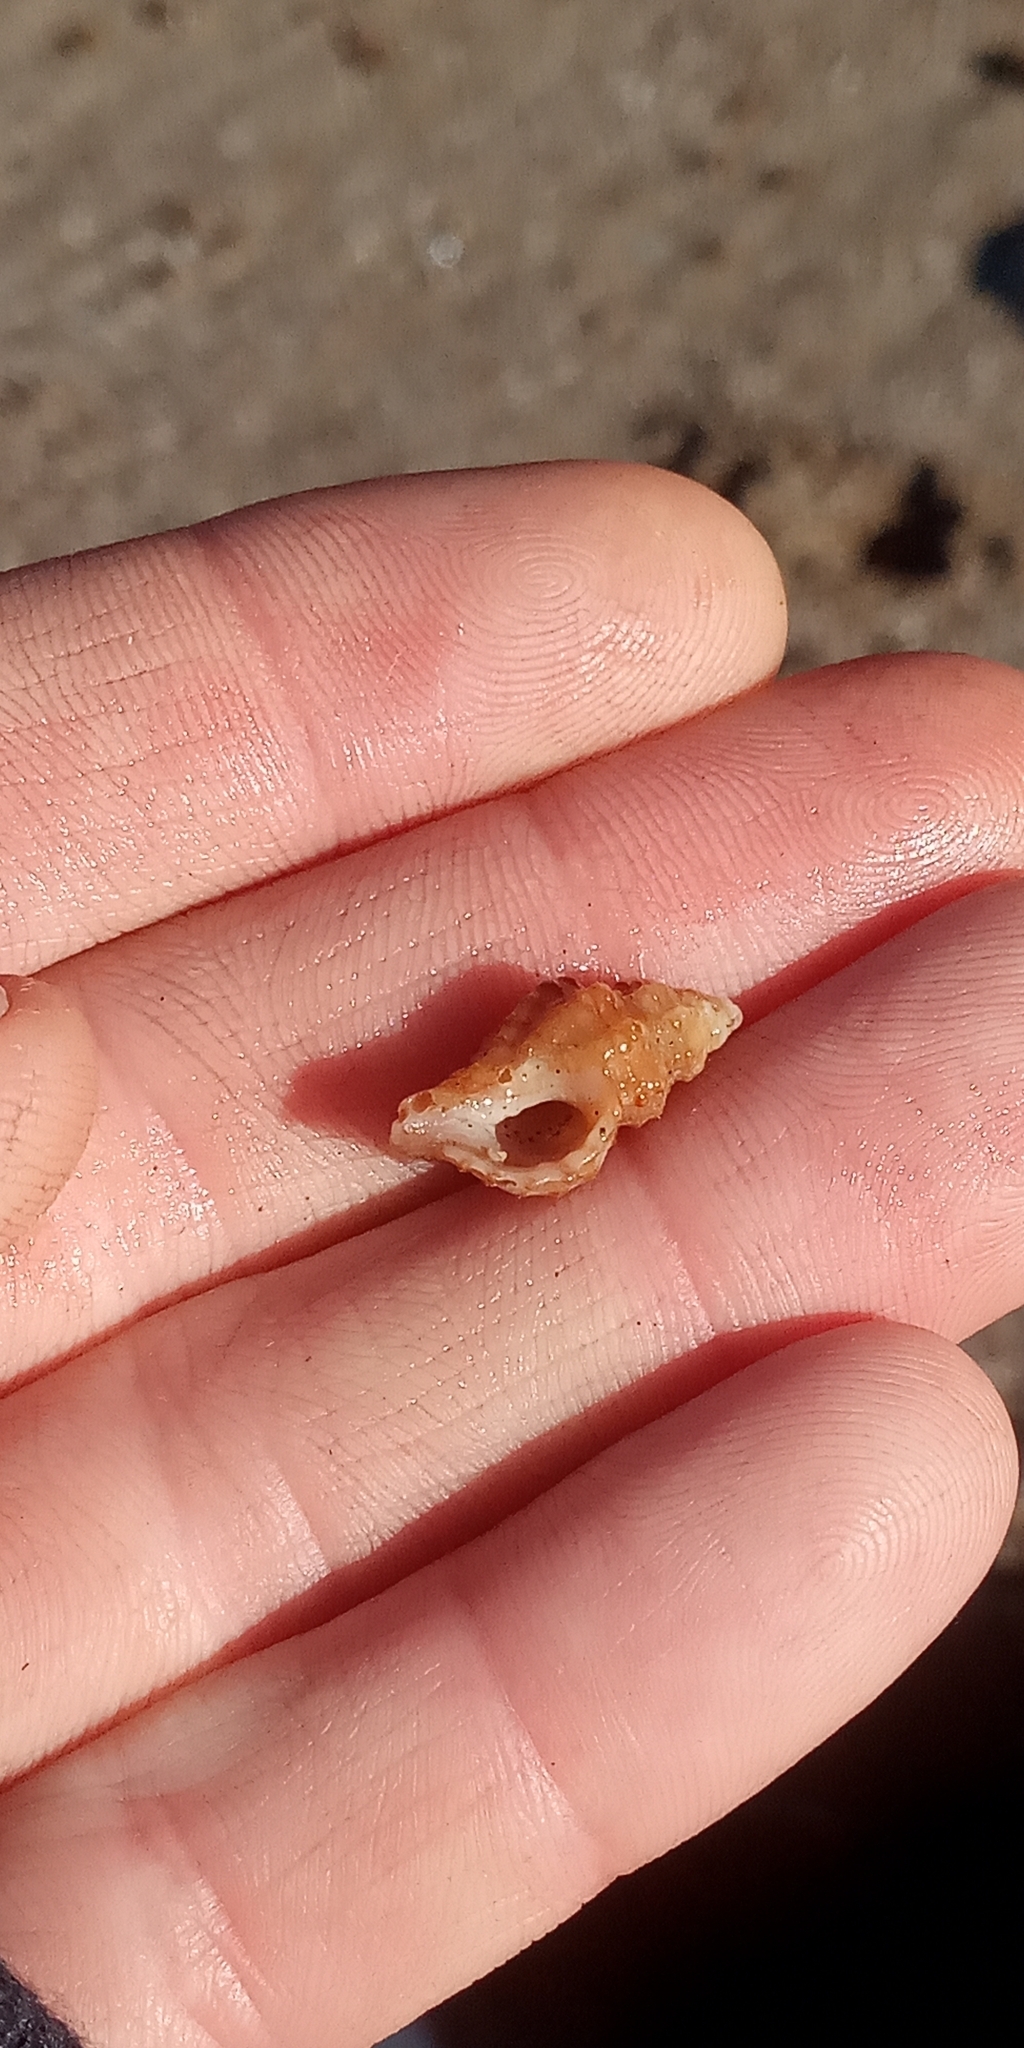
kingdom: Animalia
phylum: Mollusca
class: Gastropoda
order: Neogastropoda
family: Muricidae
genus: Muricopsis
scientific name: Muricopsis necocheana
